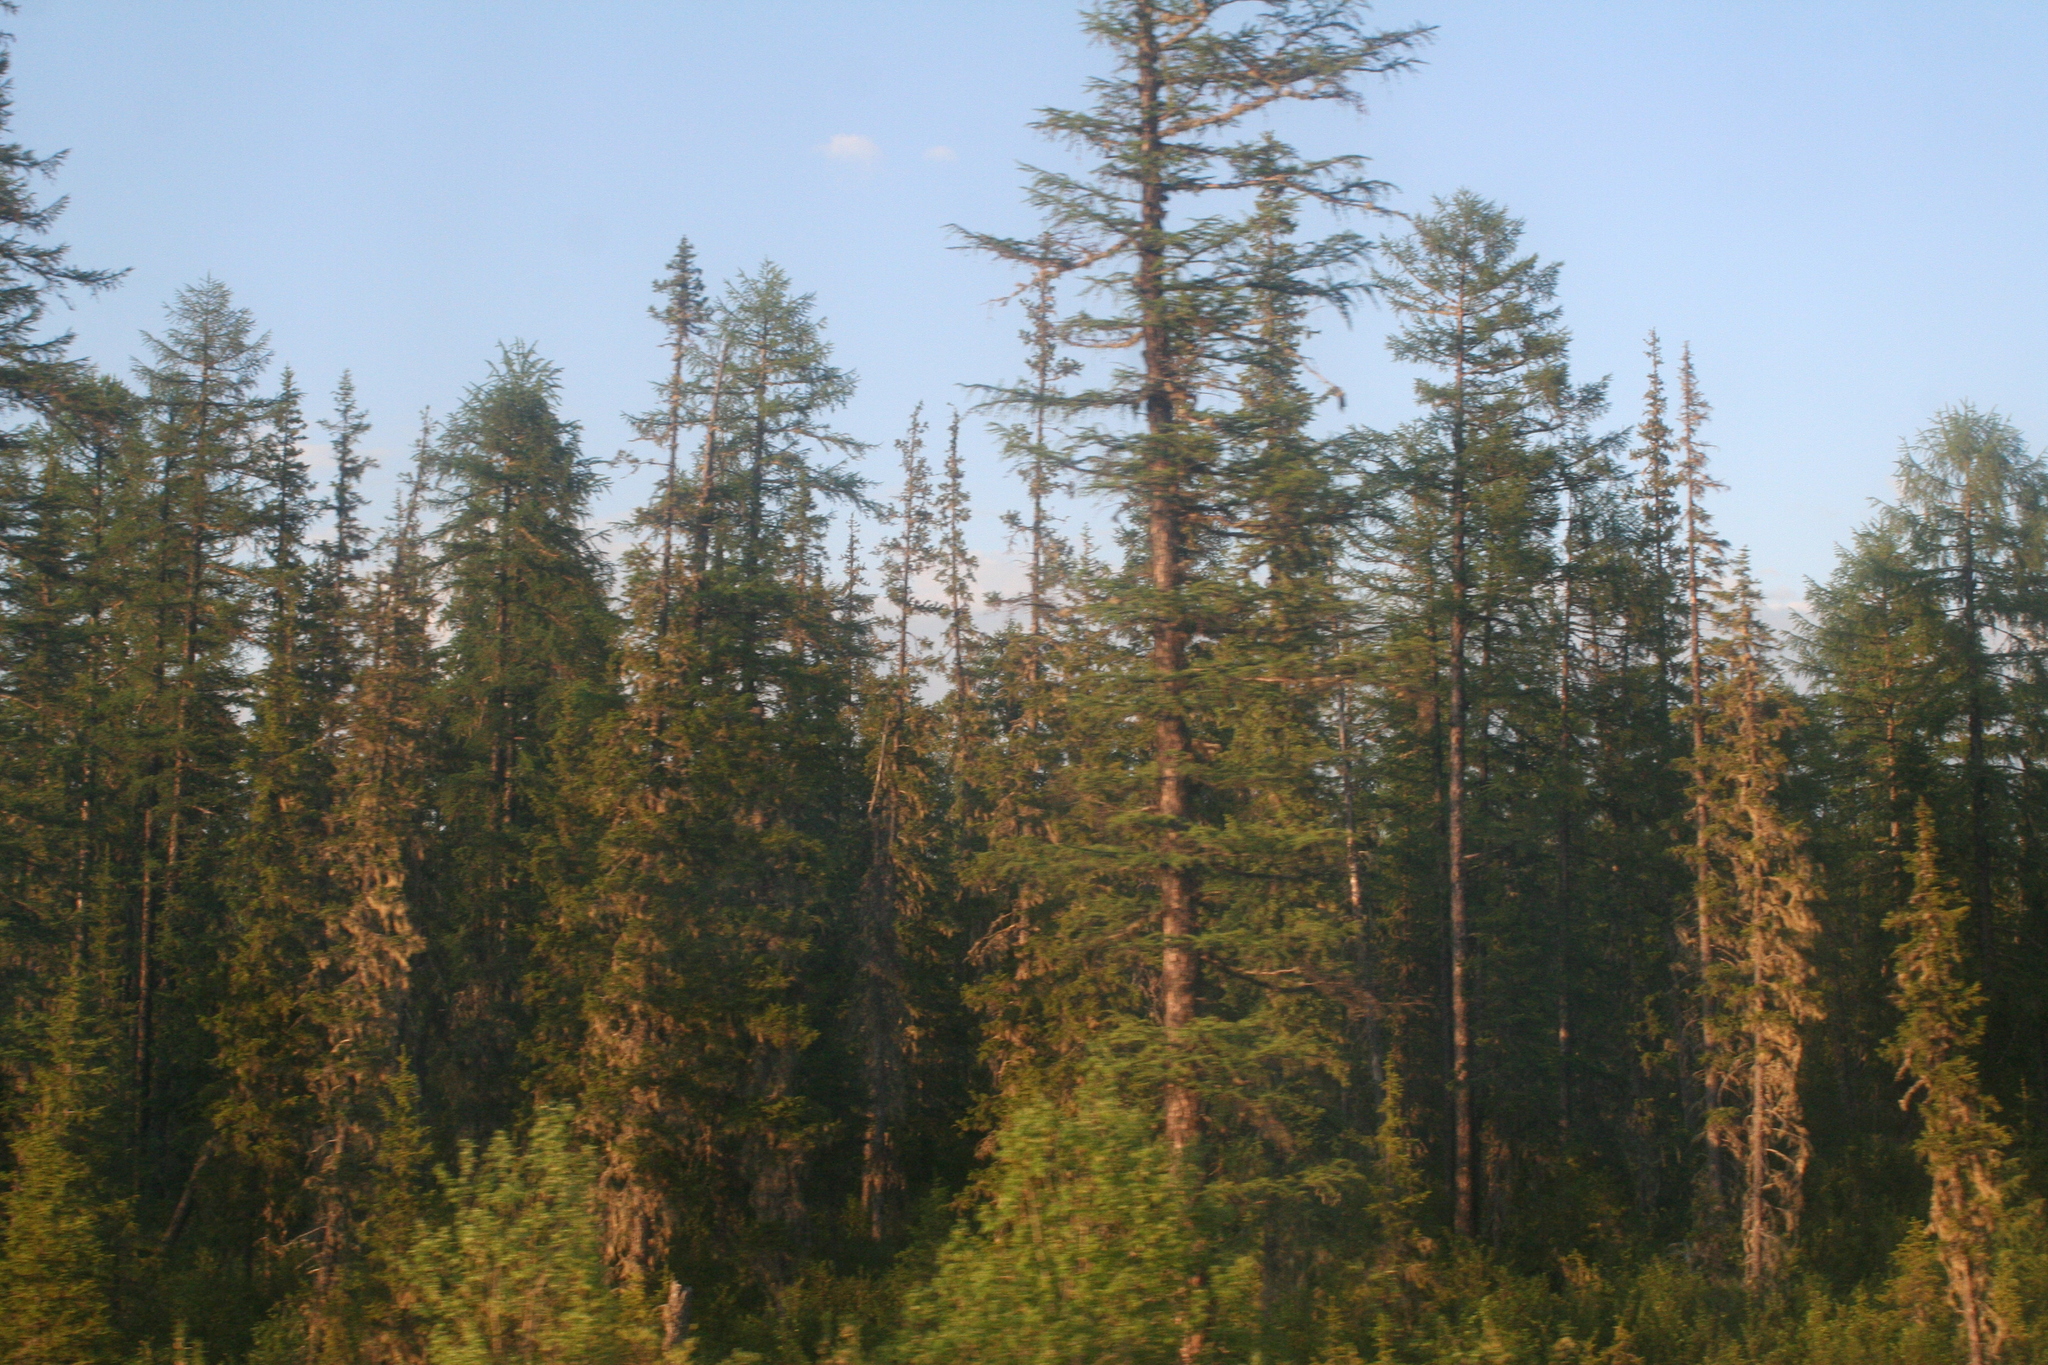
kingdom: Plantae
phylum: Tracheophyta
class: Pinopsida
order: Pinales
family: Pinaceae
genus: Larix
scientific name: Larix gmelinii
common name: Dahurian larch
